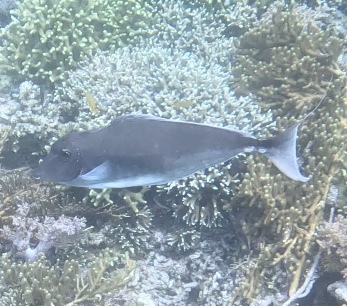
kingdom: Animalia
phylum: Chordata
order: Perciformes
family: Acanthuridae
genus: Naso
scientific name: Naso brachycentron
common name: Humpback unicornfish
